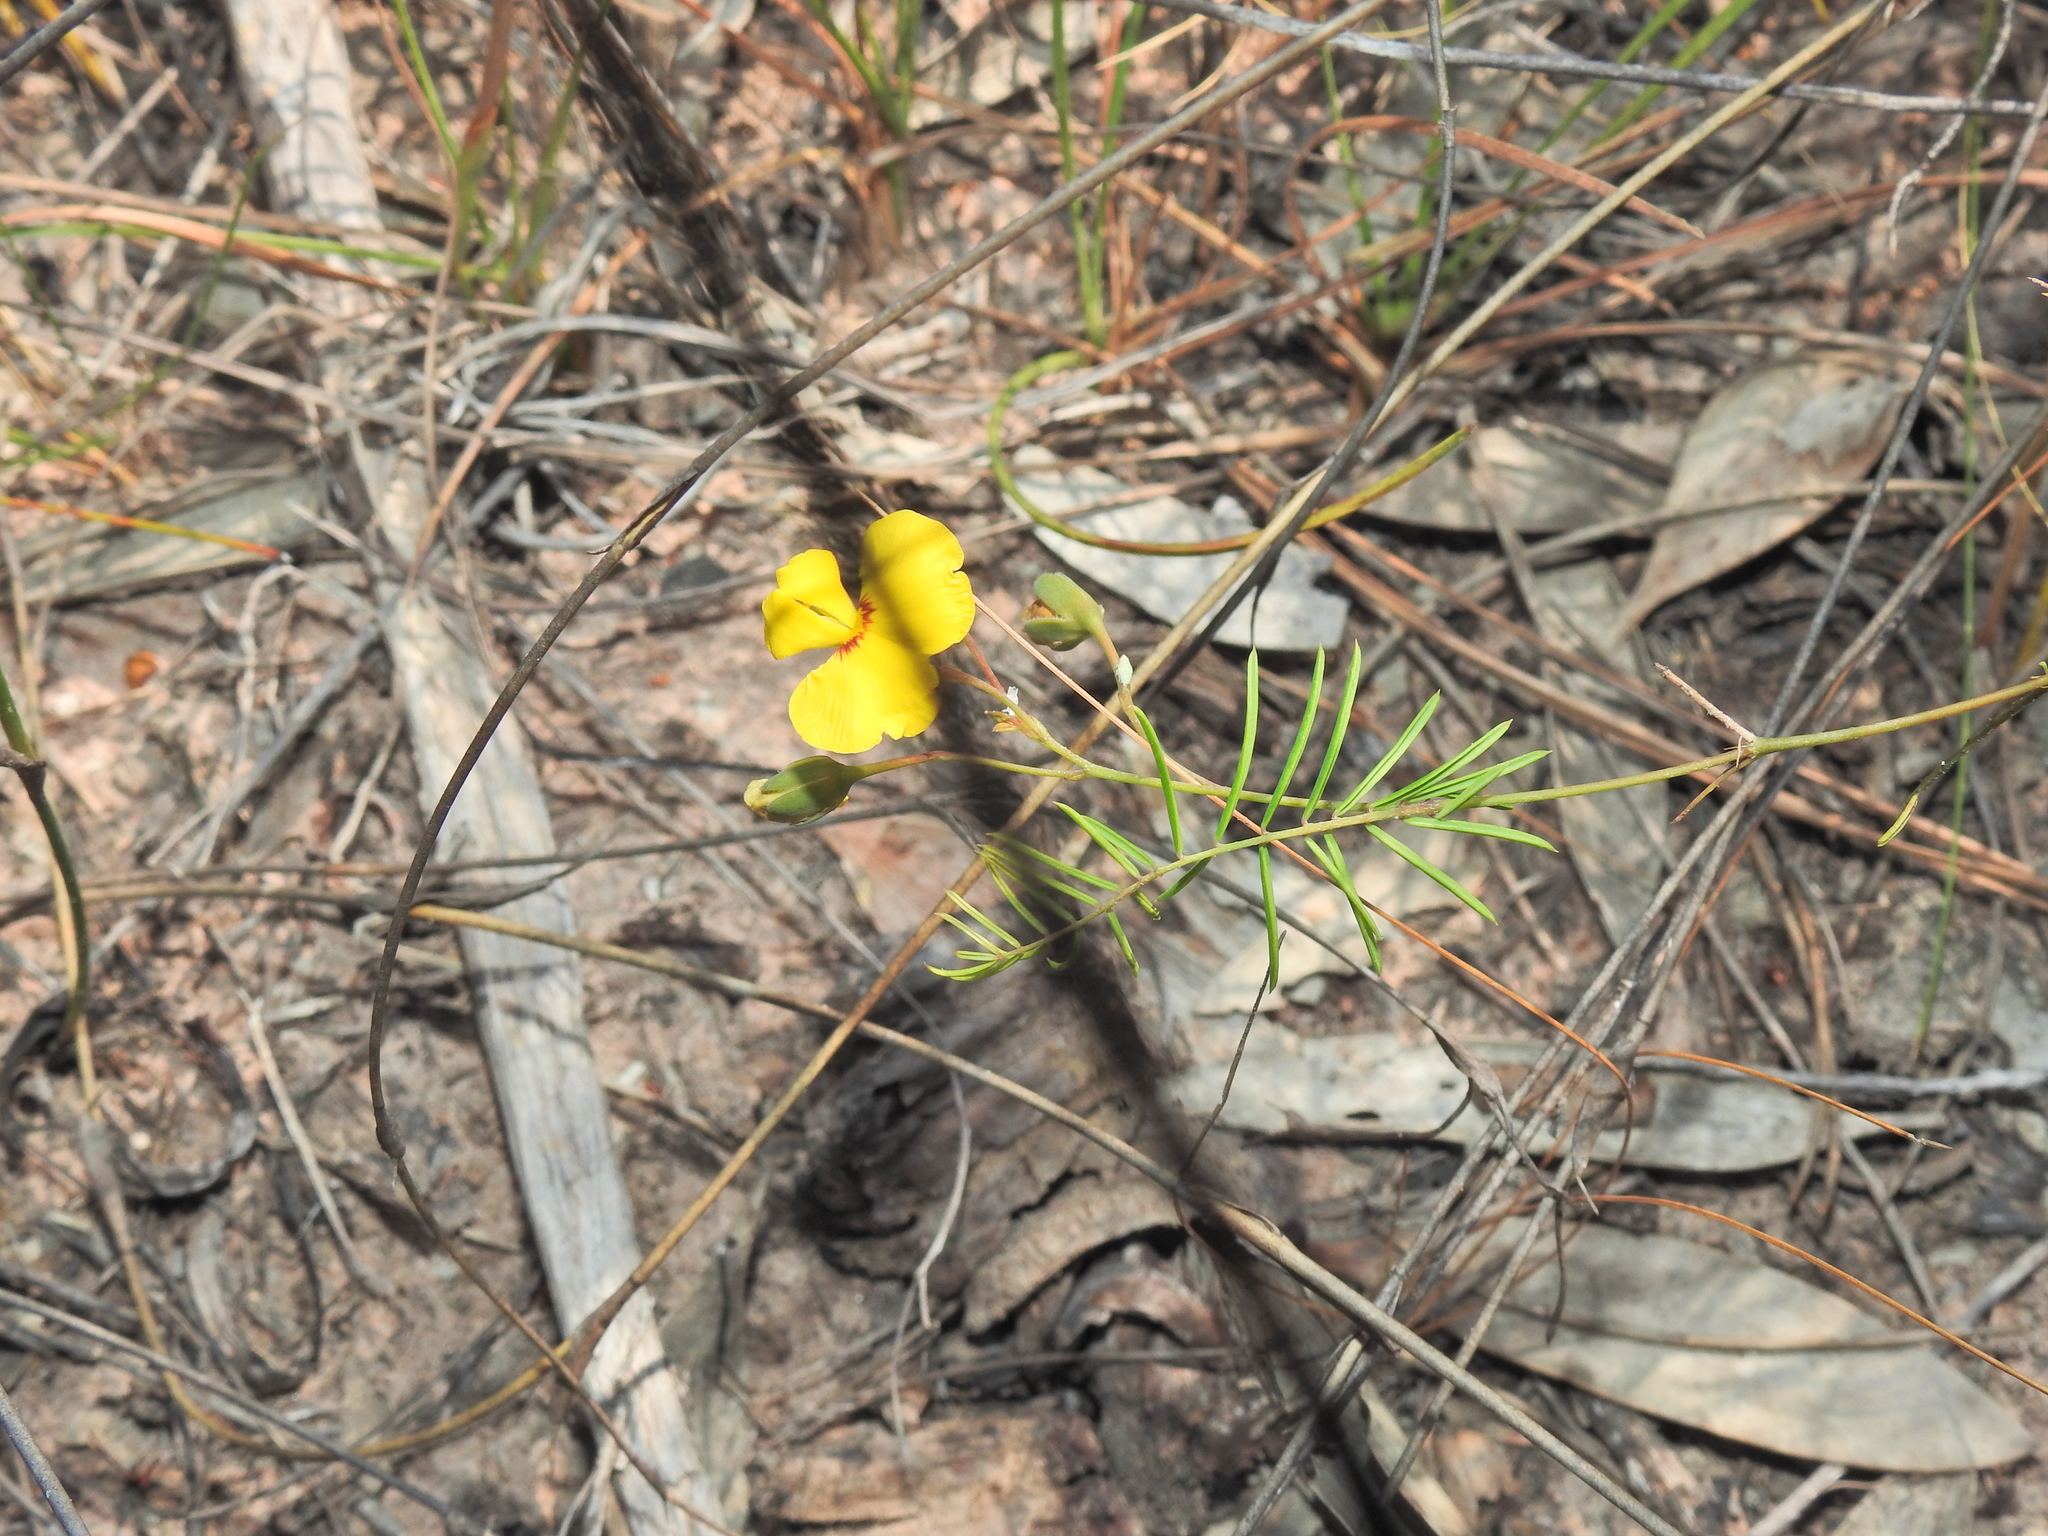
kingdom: Plantae
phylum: Tracheophyta
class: Magnoliopsida
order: Fabales
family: Fabaceae
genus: Gompholobium
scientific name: Gompholobium pinnatum
